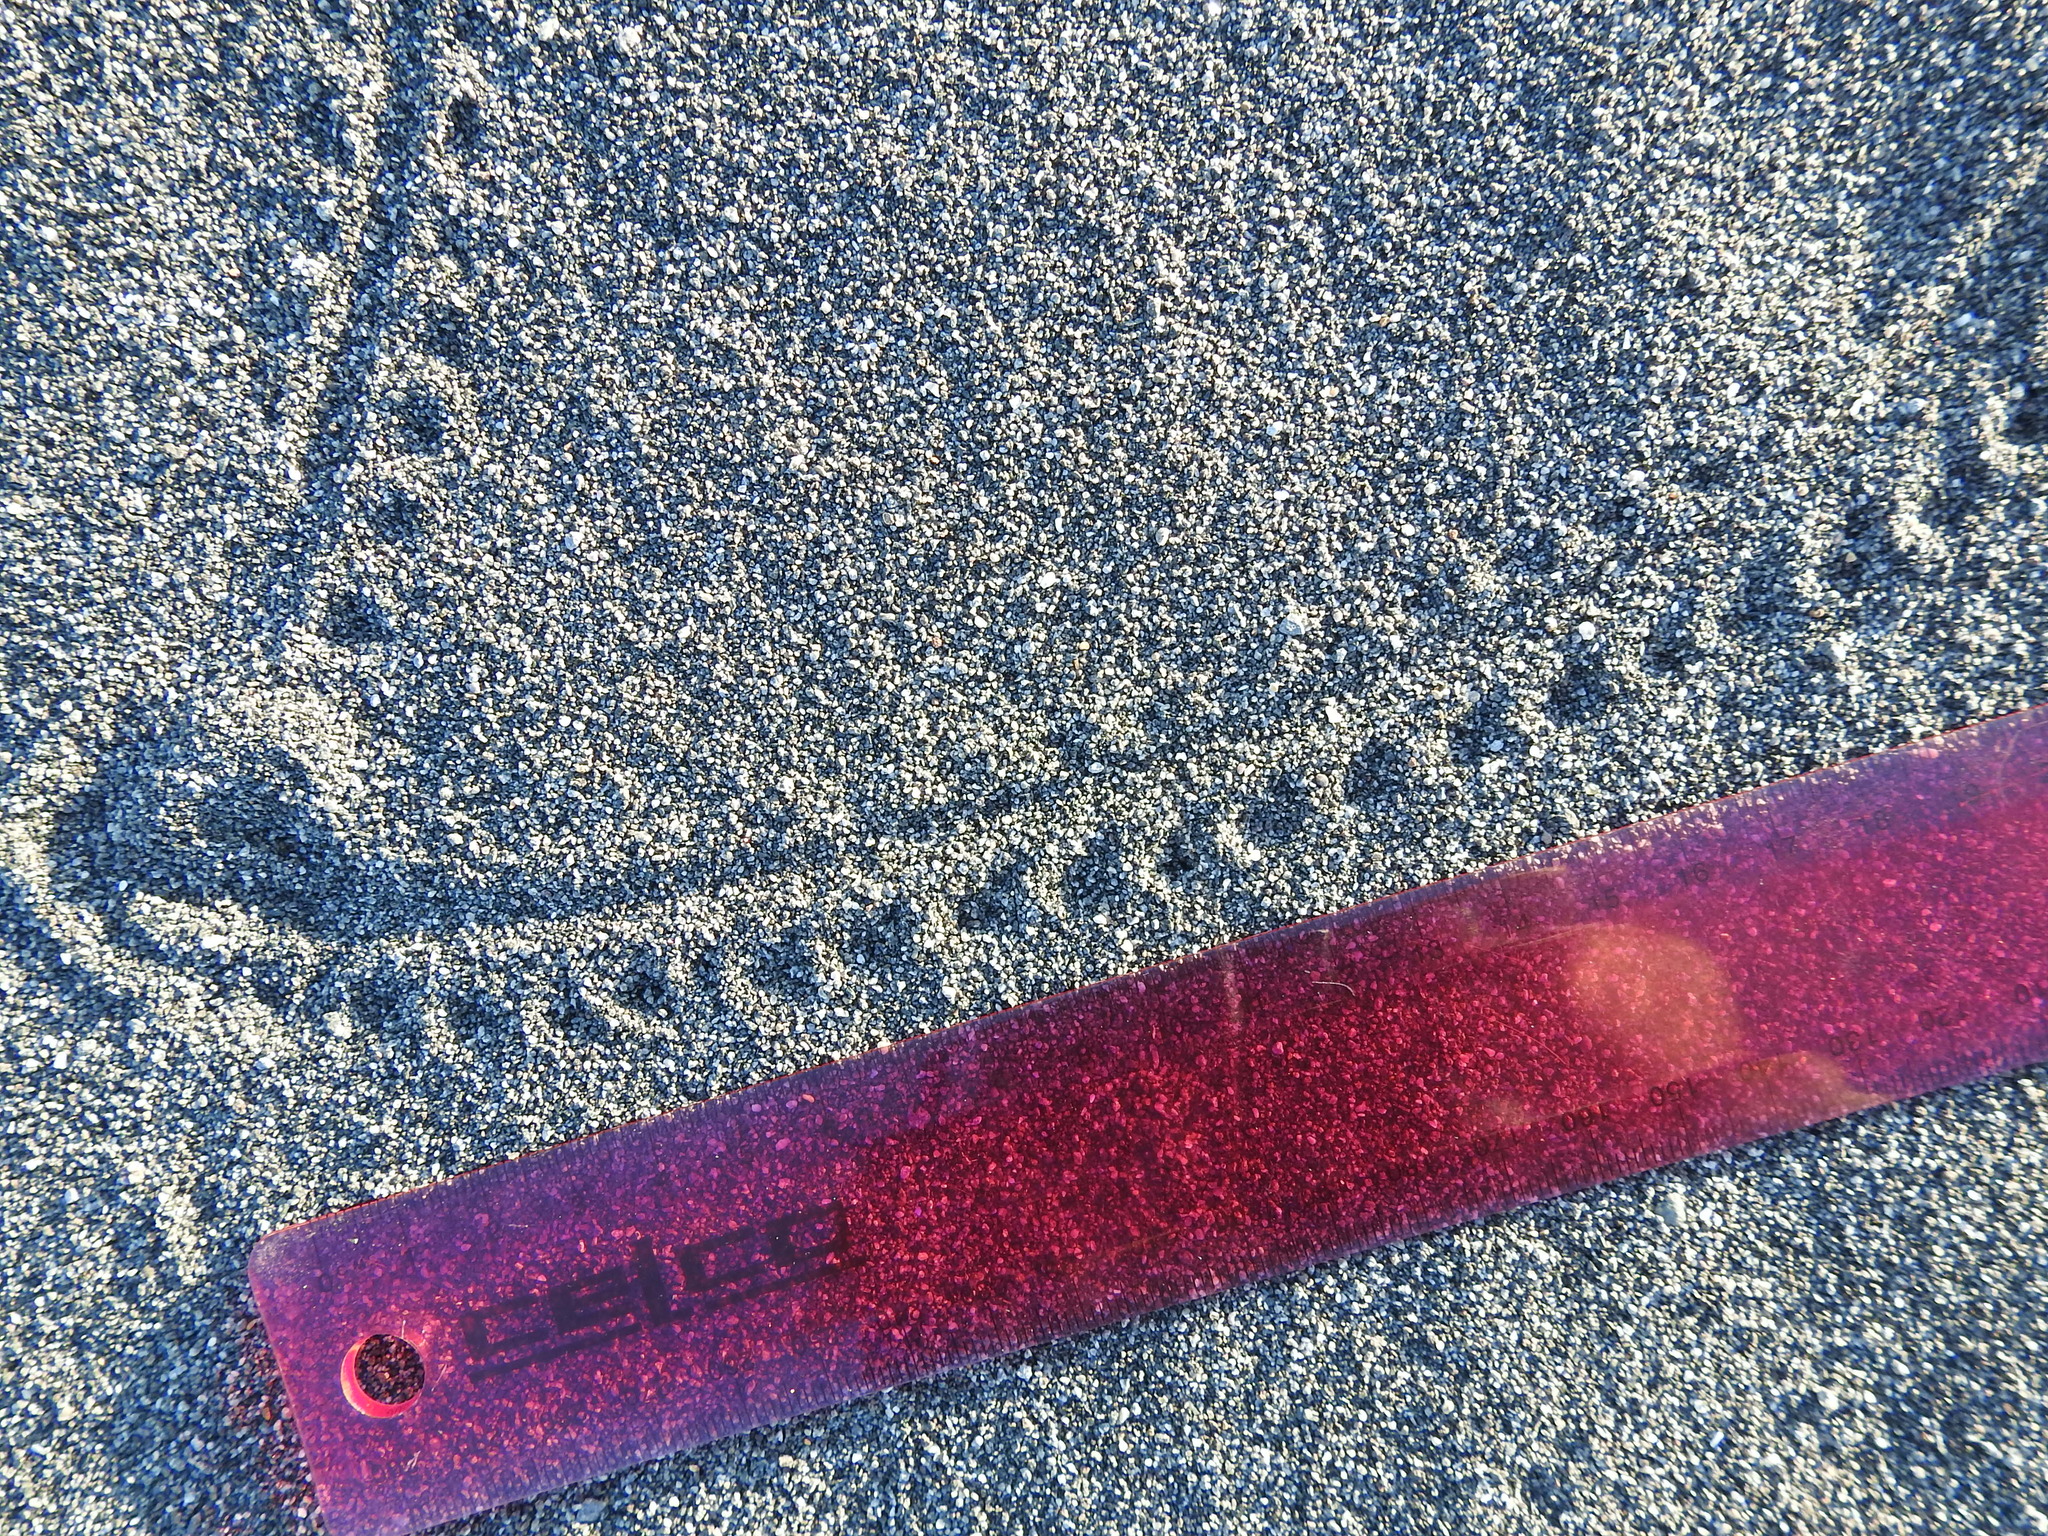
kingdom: Animalia
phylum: Arthropoda
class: Insecta
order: Coleoptera
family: Scarabaeidae
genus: Pericoptus
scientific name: Pericoptus truncatus
